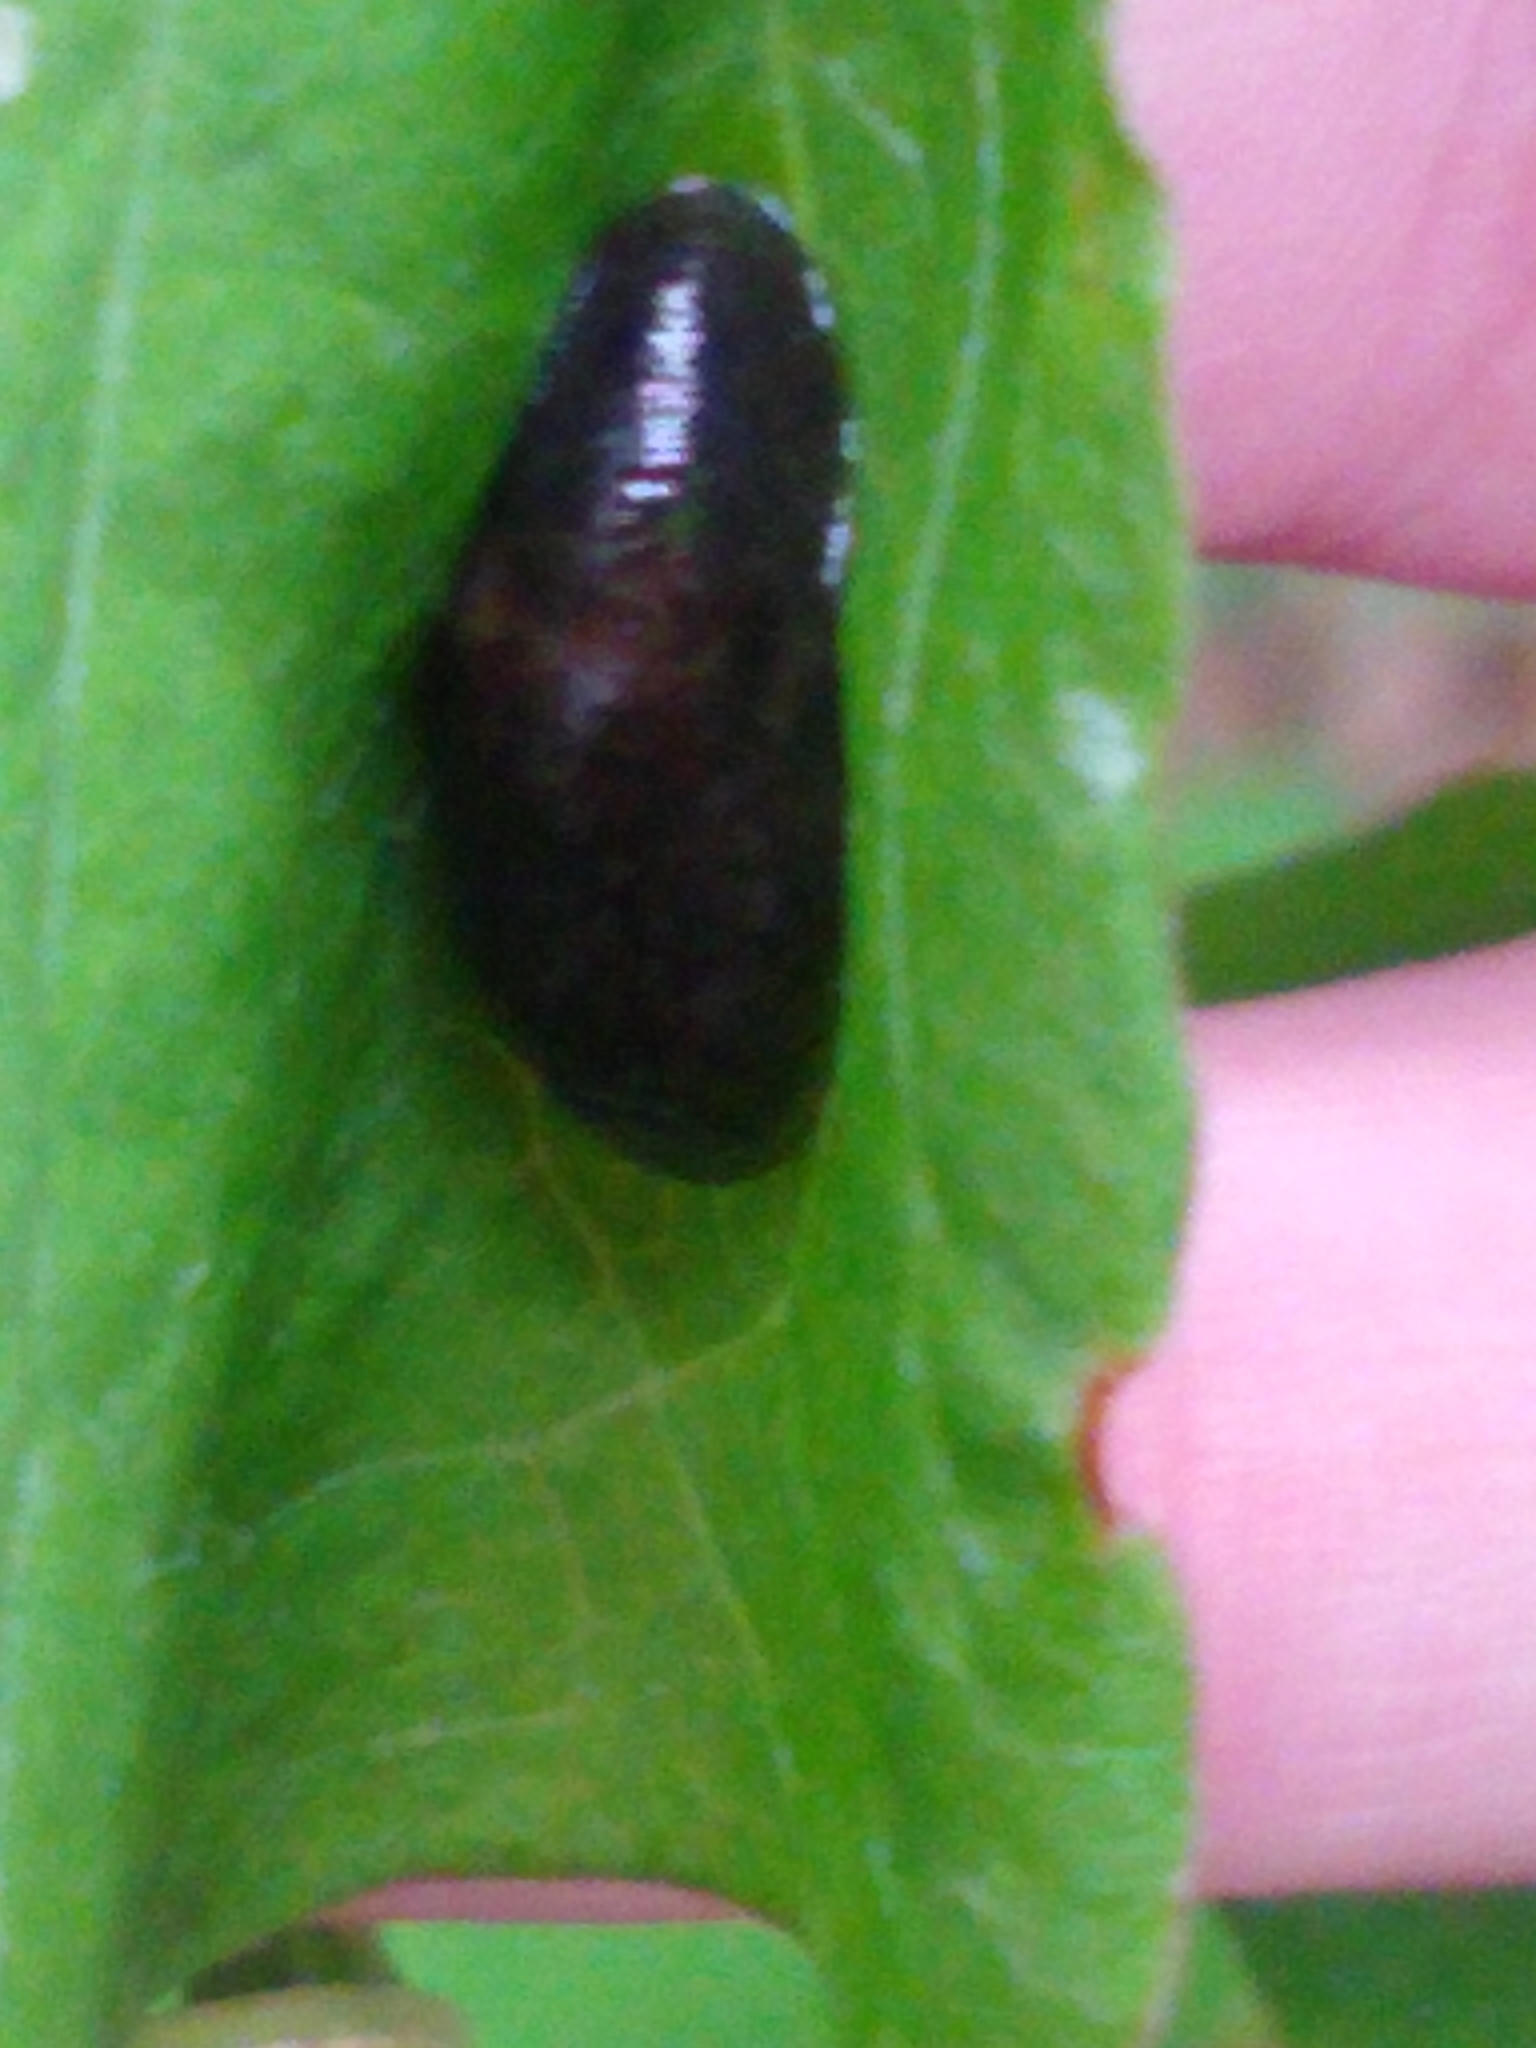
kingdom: Animalia
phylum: Mollusca
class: Gastropoda
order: Stylommatophora
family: Agriolimacidae
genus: Deroceras
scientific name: Deroceras laeve
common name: Marsh slug
